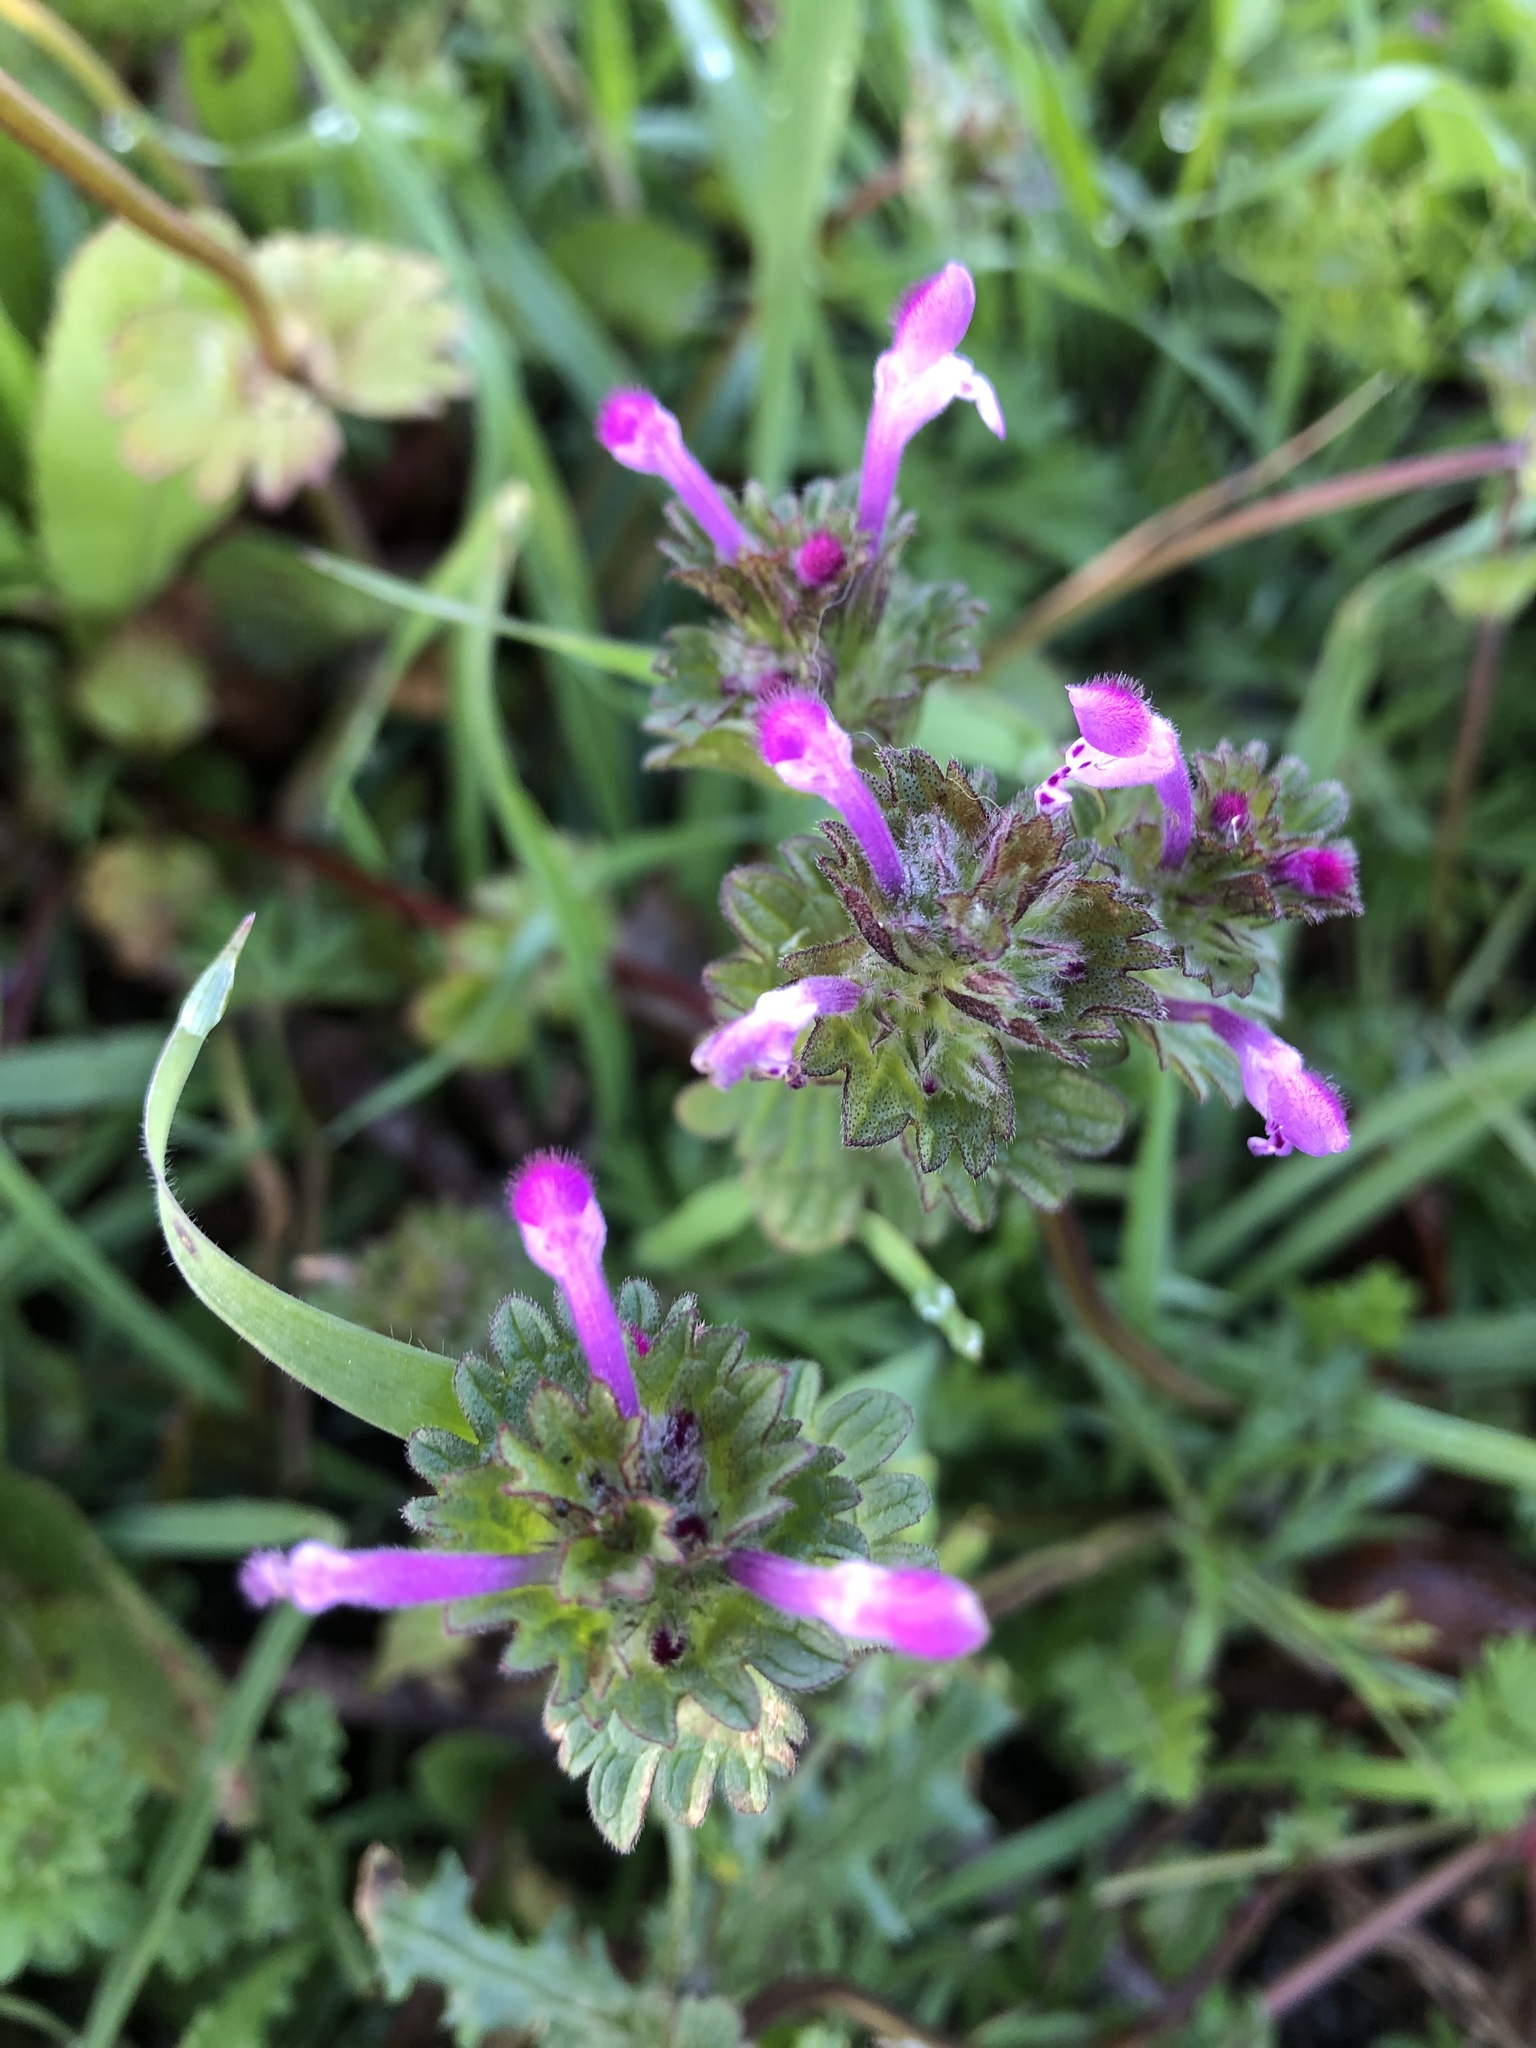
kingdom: Plantae
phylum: Tracheophyta
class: Magnoliopsida
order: Lamiales
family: Lamiaceae
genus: Lamium
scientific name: Lamium amplexicaule
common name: Henbit dead-nettle
